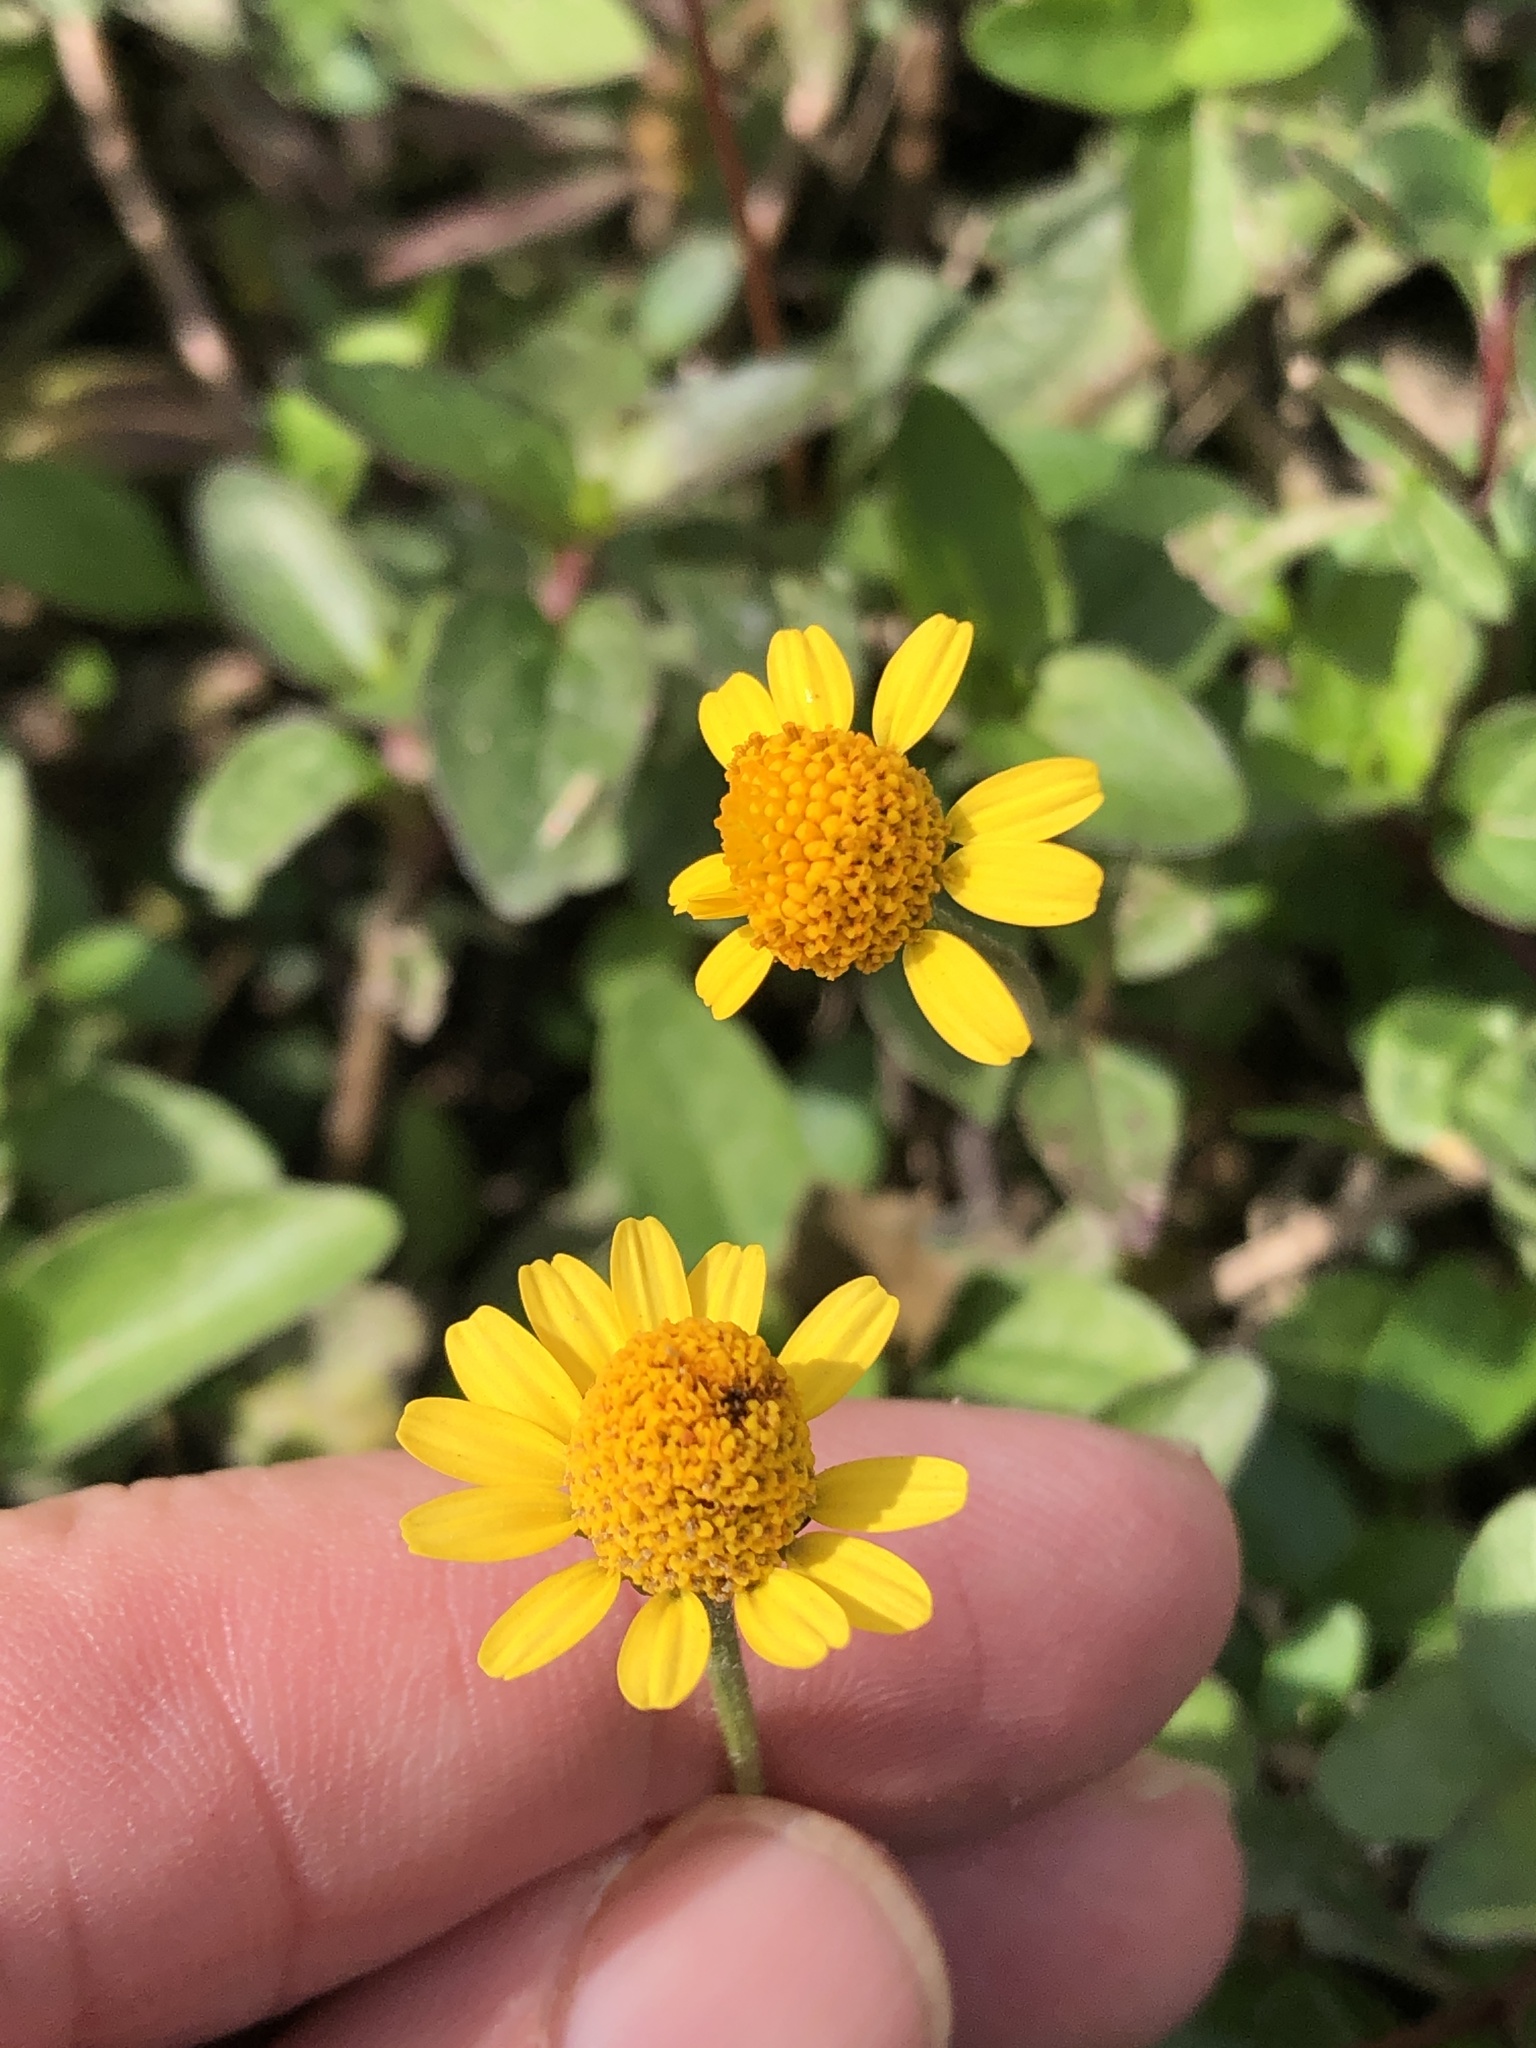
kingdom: Plantae
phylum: Tracheophyta
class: Magnoliopsida
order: Asterales
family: Asteraceae
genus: Acmella
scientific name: Acmella repens
